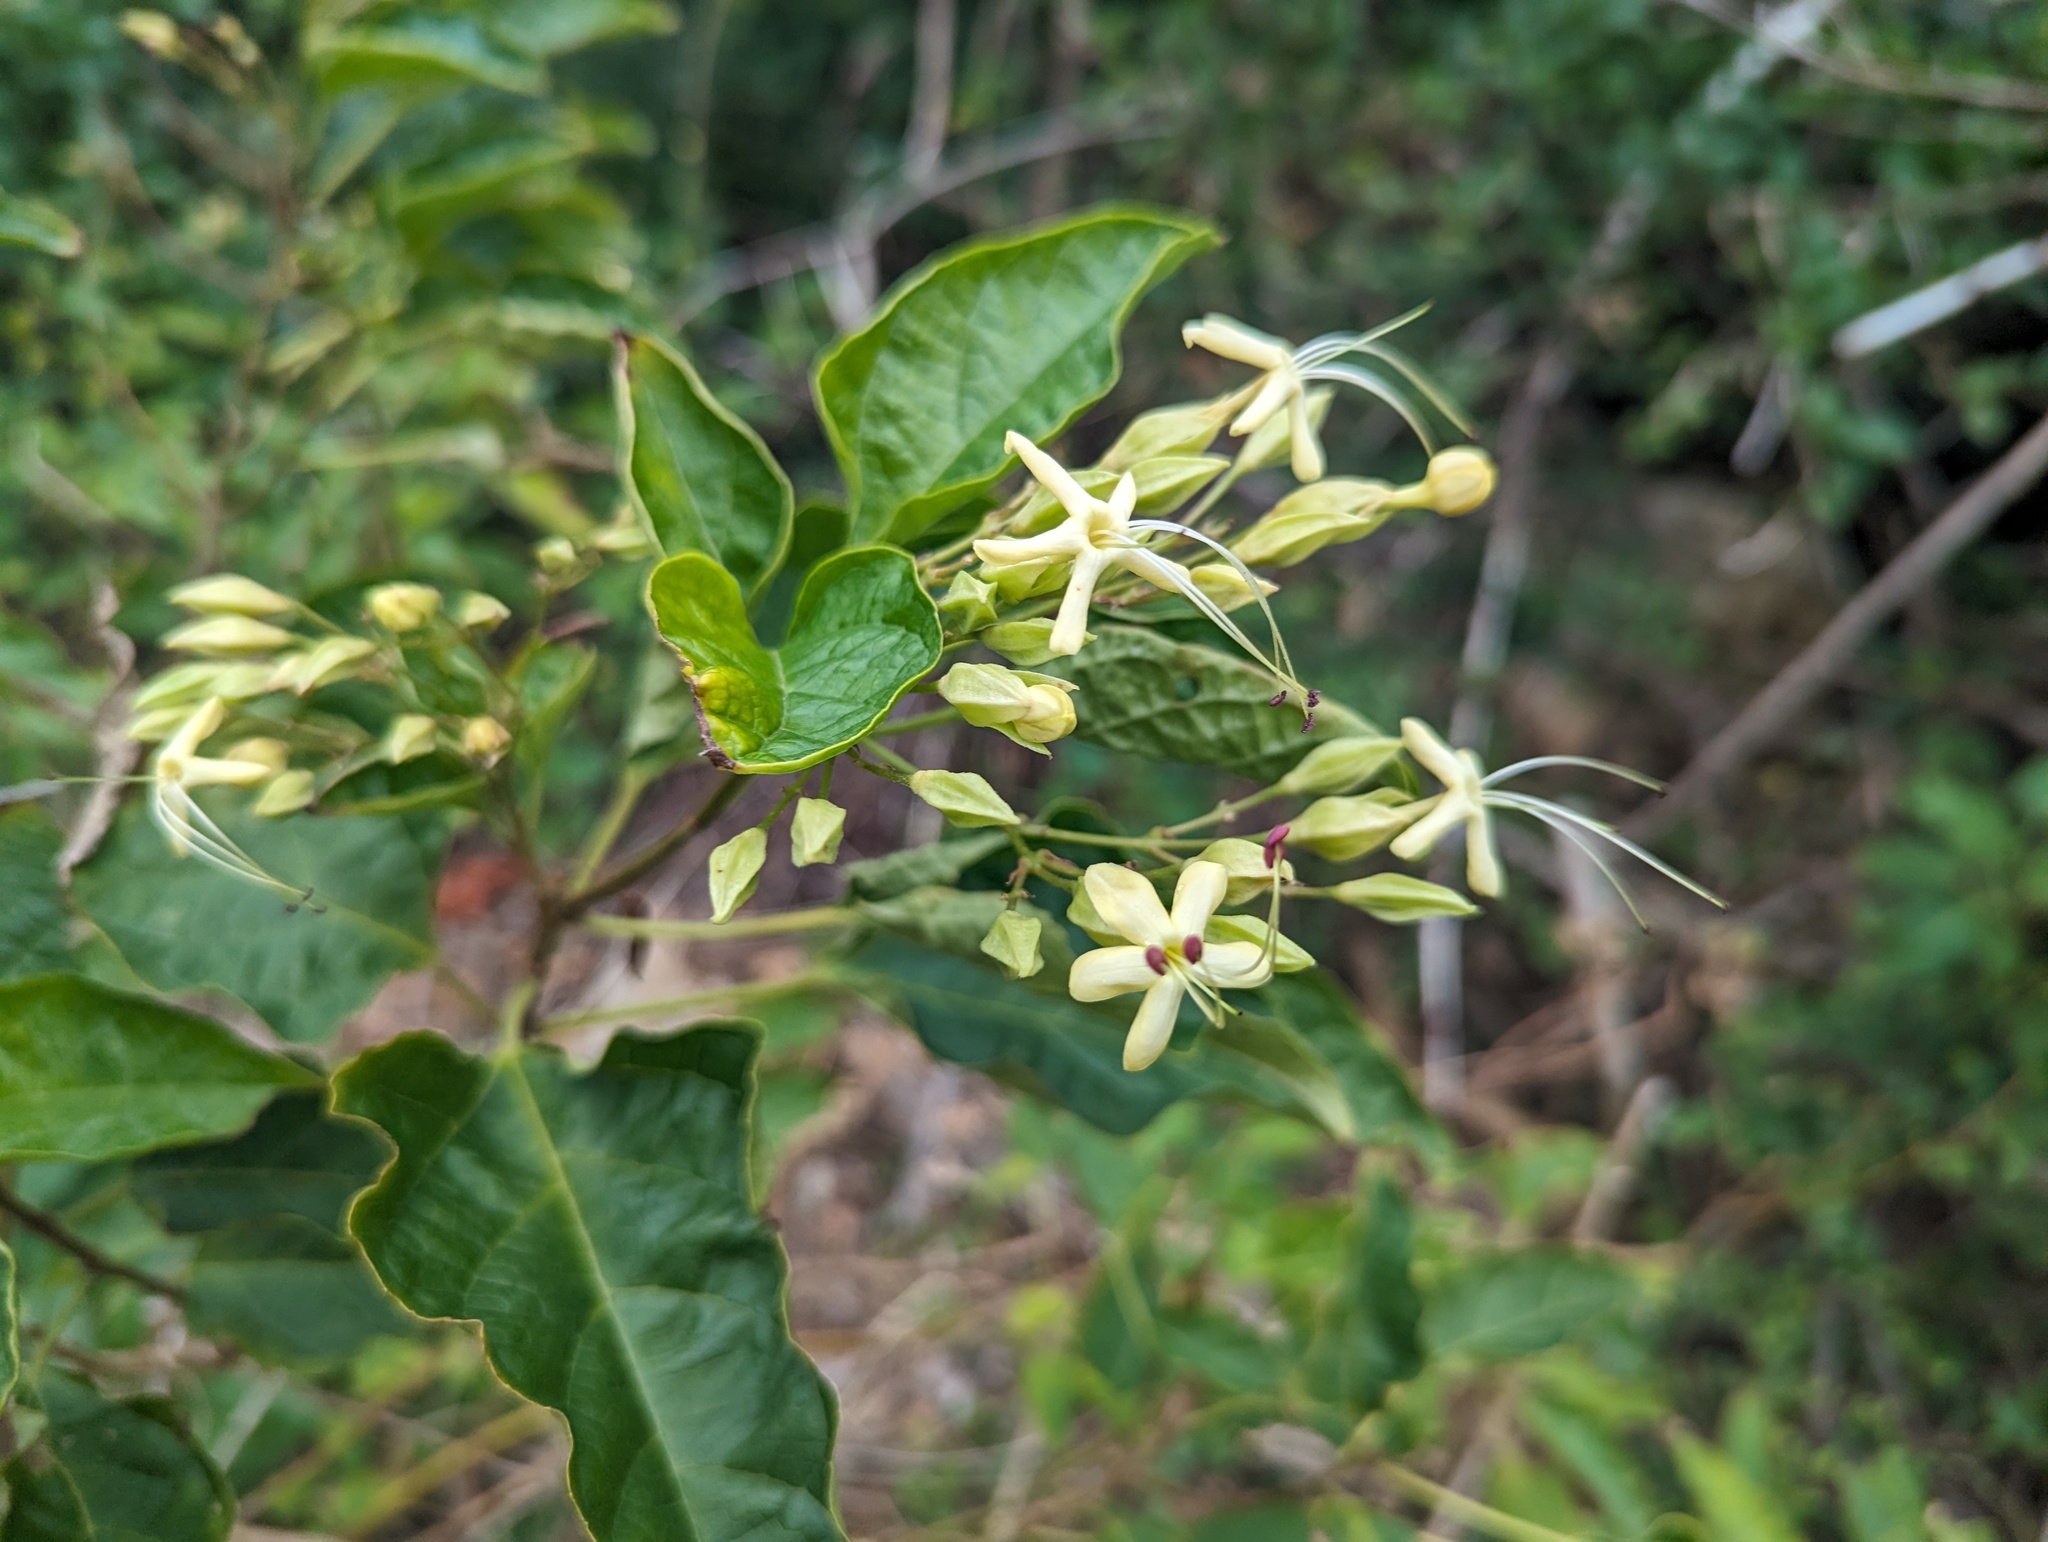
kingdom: Plantae
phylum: Tracheophyta
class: Magnoliopsida
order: Lamiales
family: Lamiaceae
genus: Clerodendrum
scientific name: Clerodendrum trichotomum
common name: Harlequin glorybower
